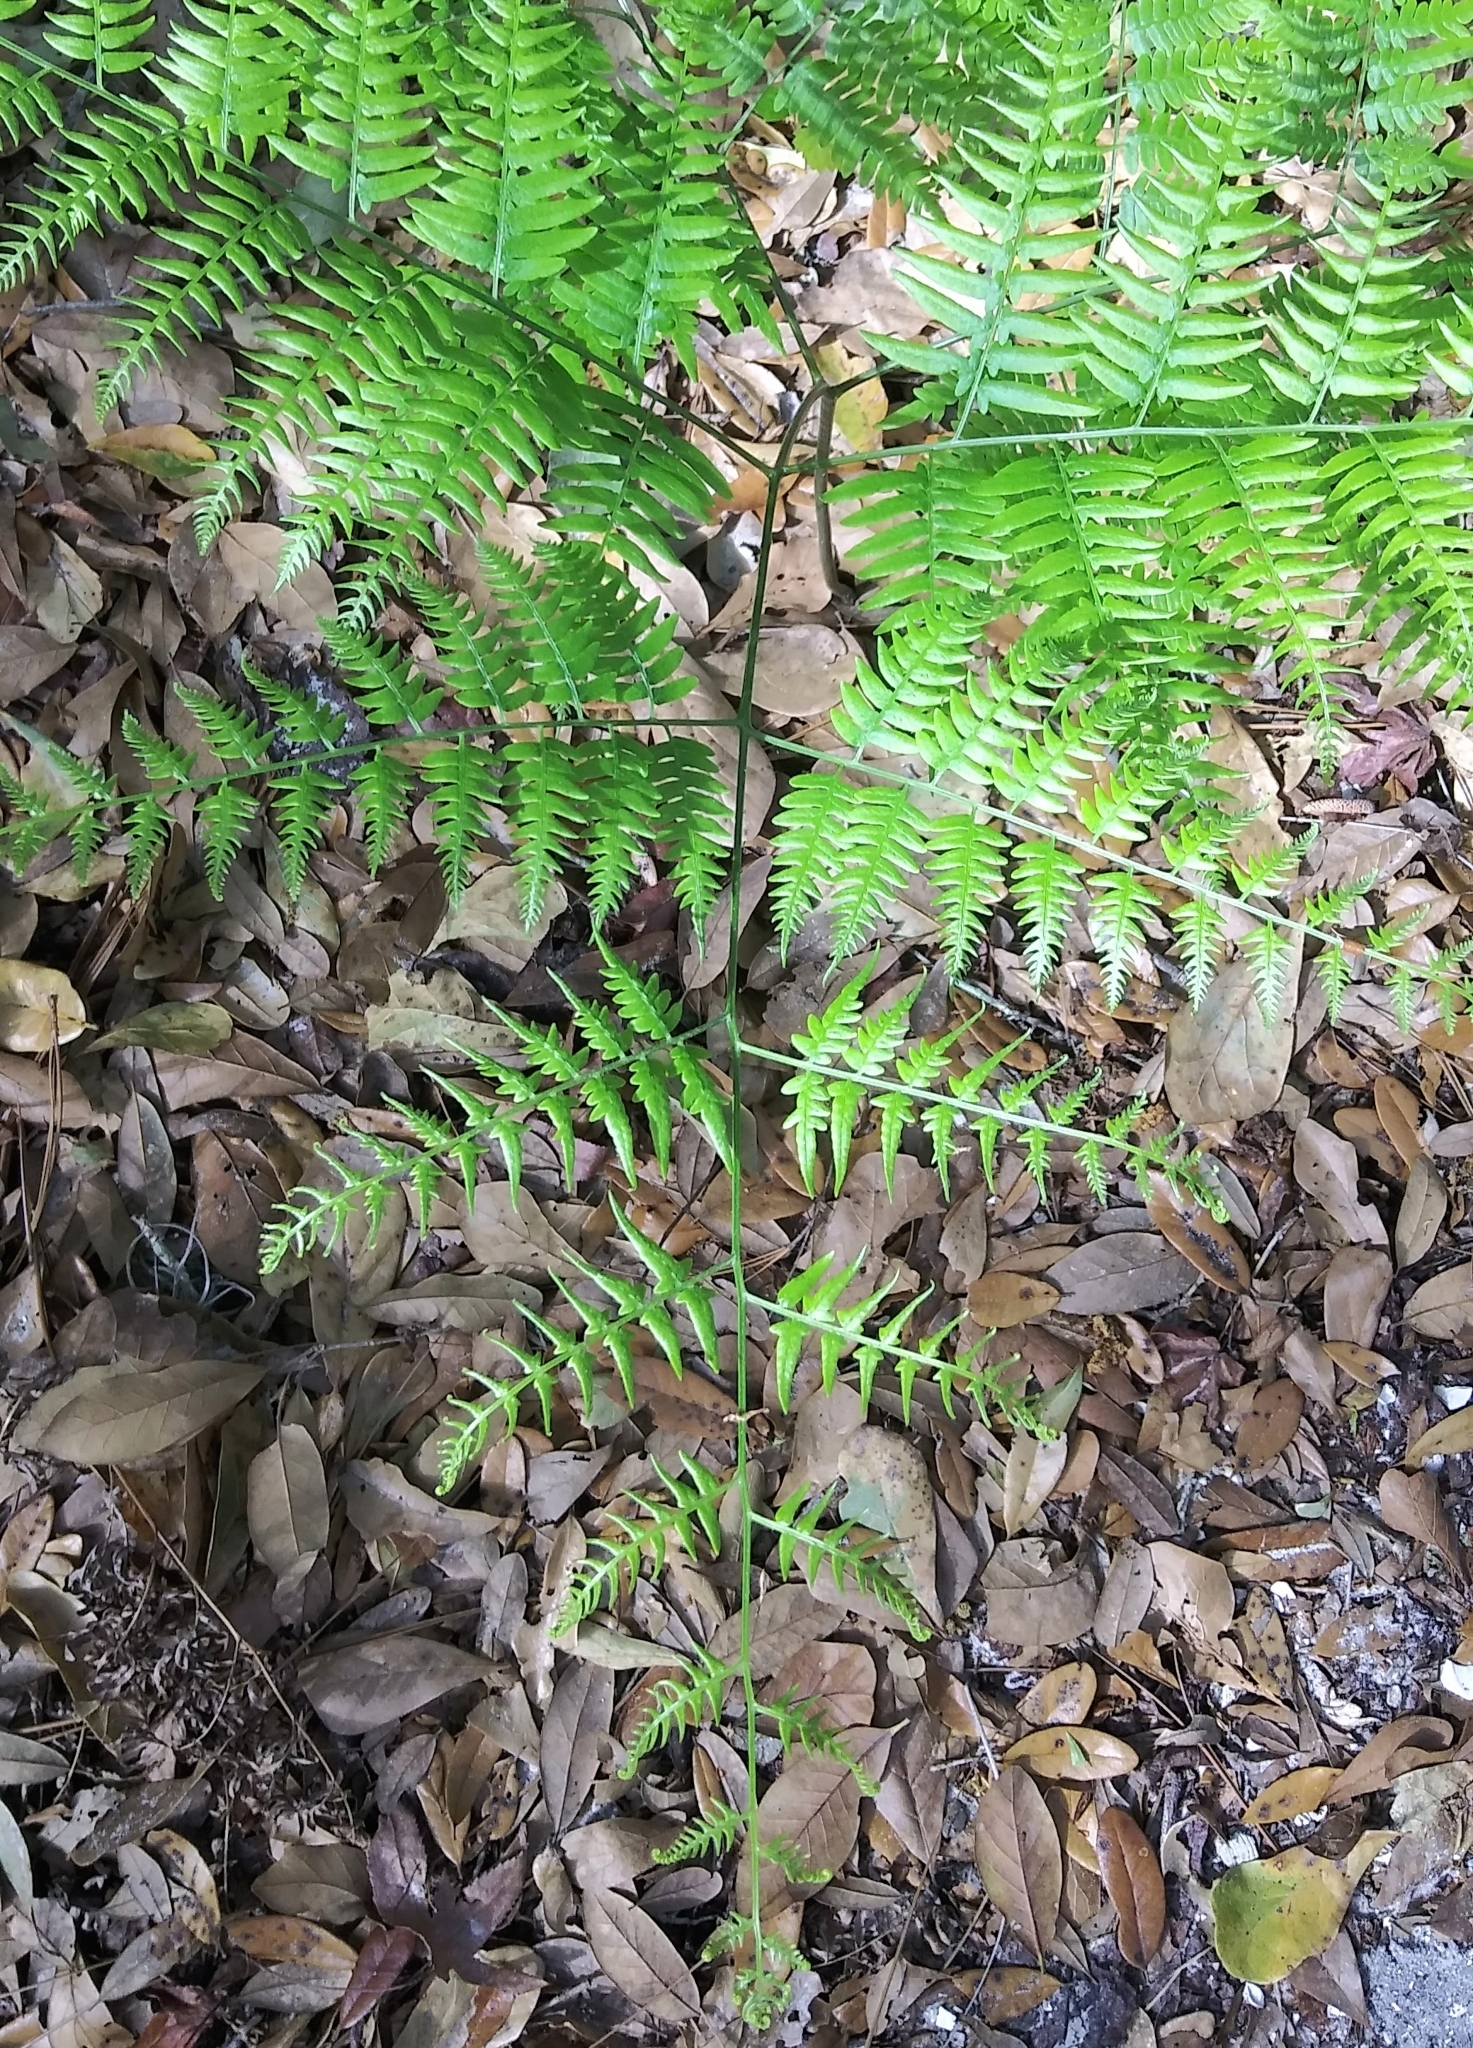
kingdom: Plantae
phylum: Tracheophyta
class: Polypodiopsida
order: Polypodiales
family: Dennstaedtiaceae
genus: Pteridium
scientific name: Pteridium aquilinum
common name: Bracken
